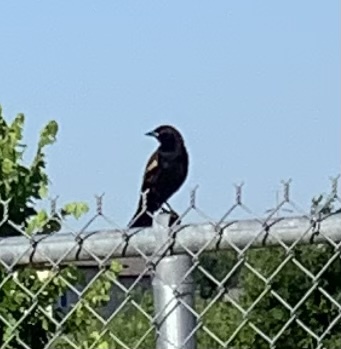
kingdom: Animalia
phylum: Chordata
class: Aves
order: Passeriformes
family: Icteridae
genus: Agelaius
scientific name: Agelaius phoeniceus
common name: Red-winged blackbird
